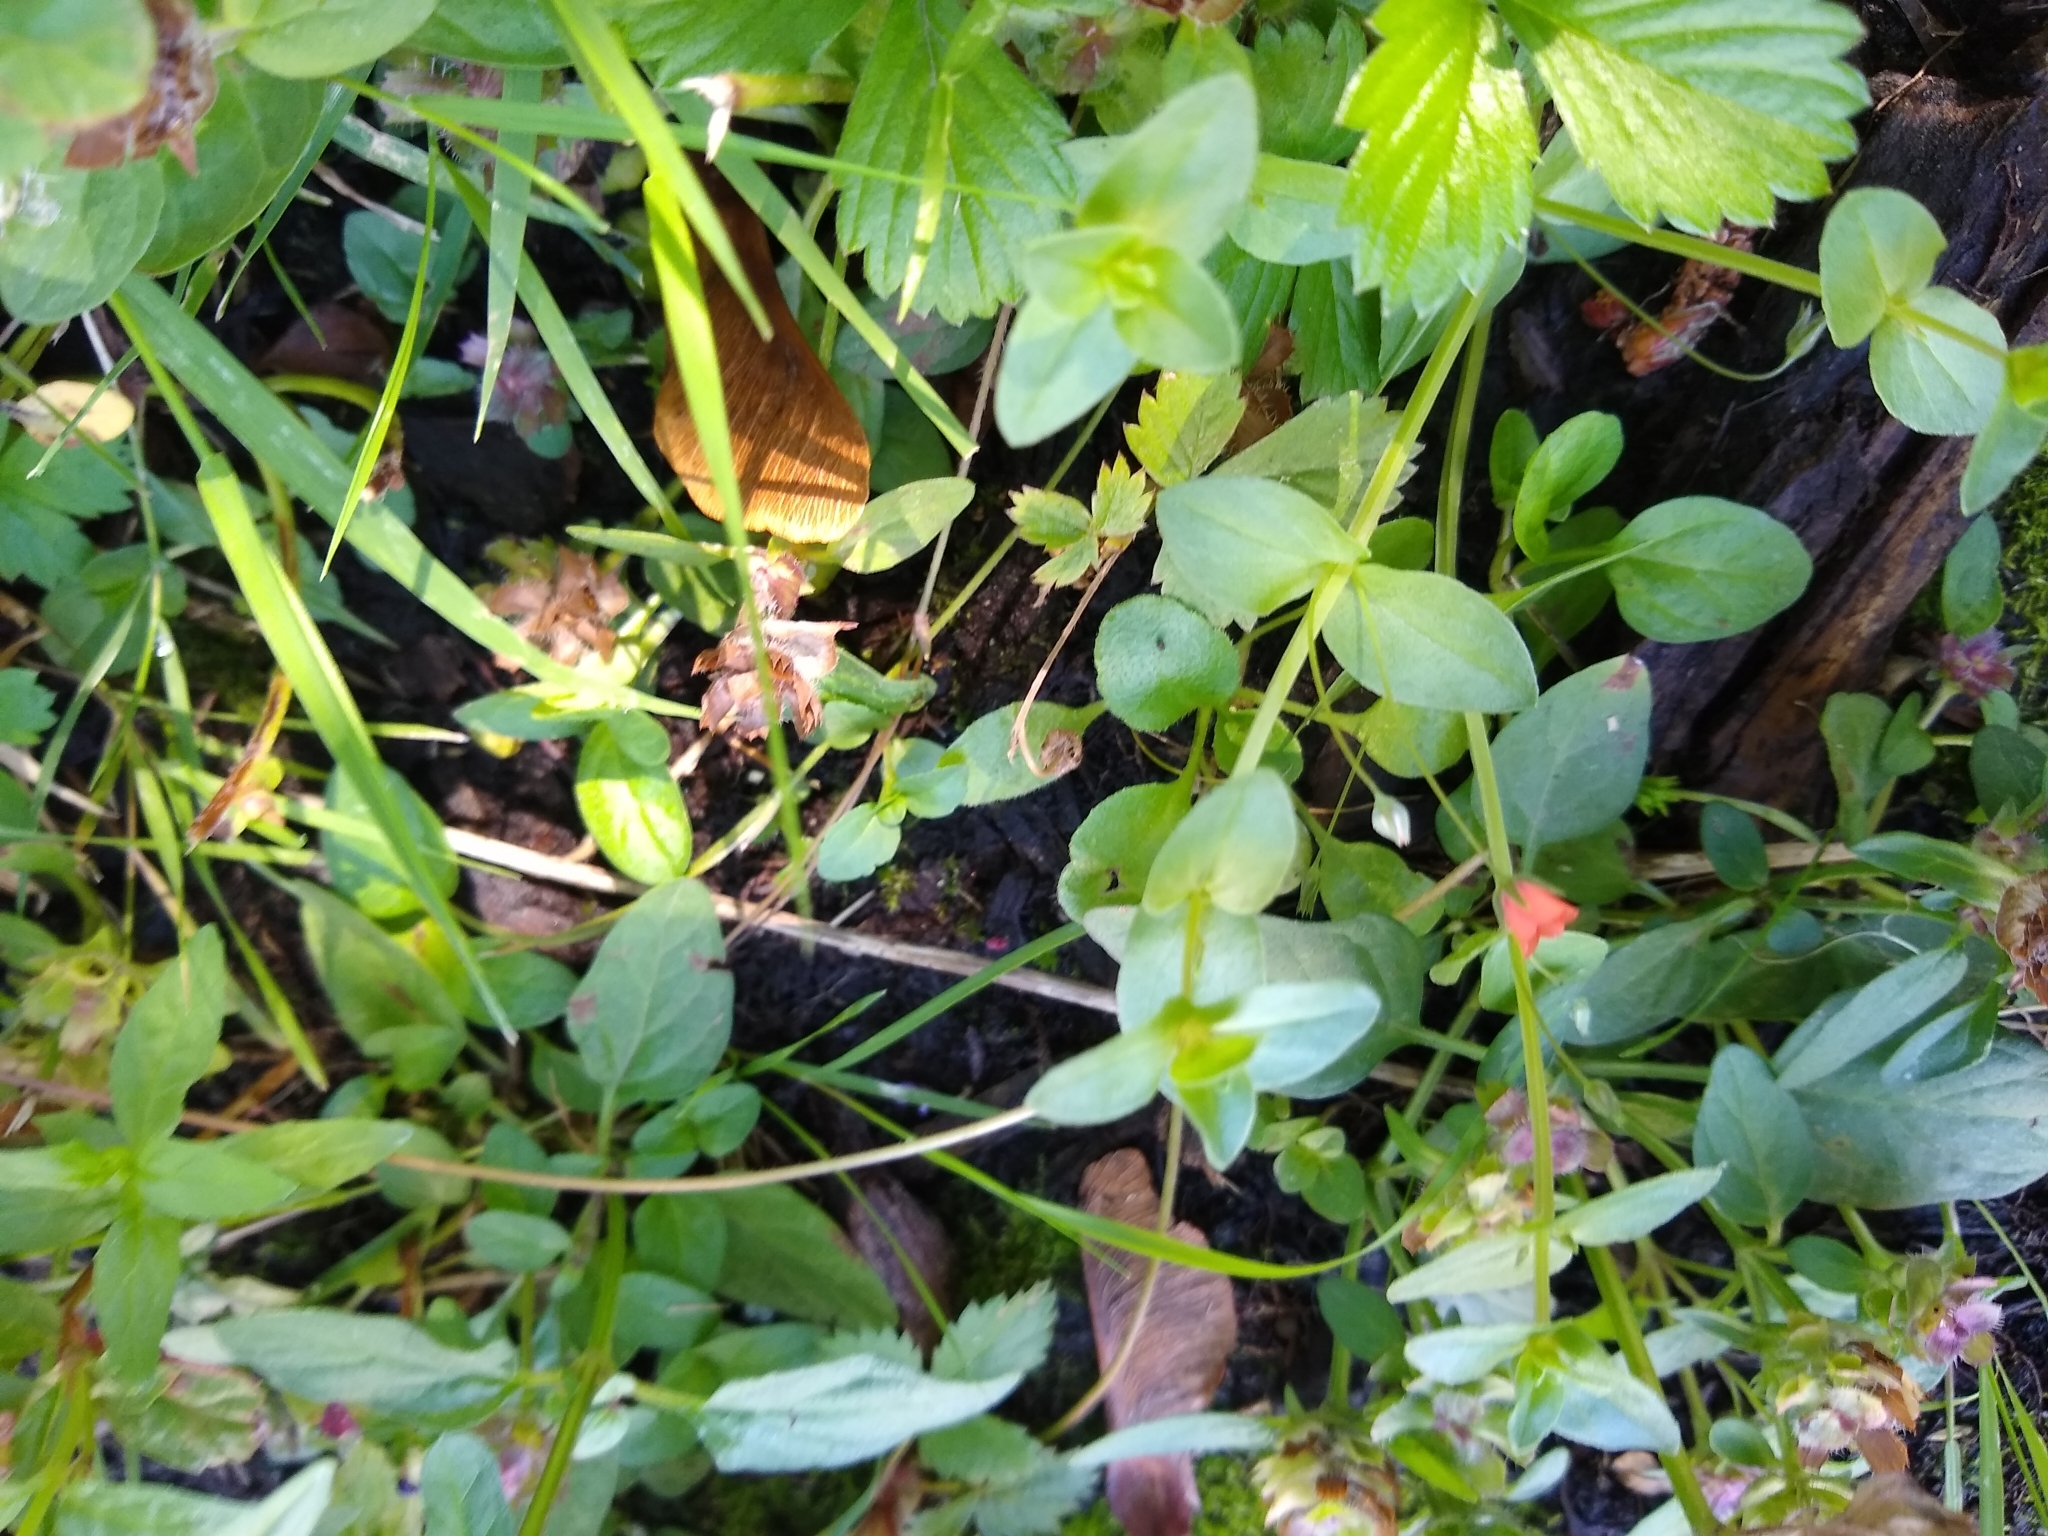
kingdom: Plantae
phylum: Tracheophyta
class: Magnoliopsida
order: Ericales
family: Primulaceae
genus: Lysimachia
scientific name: Lysimachia arvensis
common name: Scarlet pimpernel
